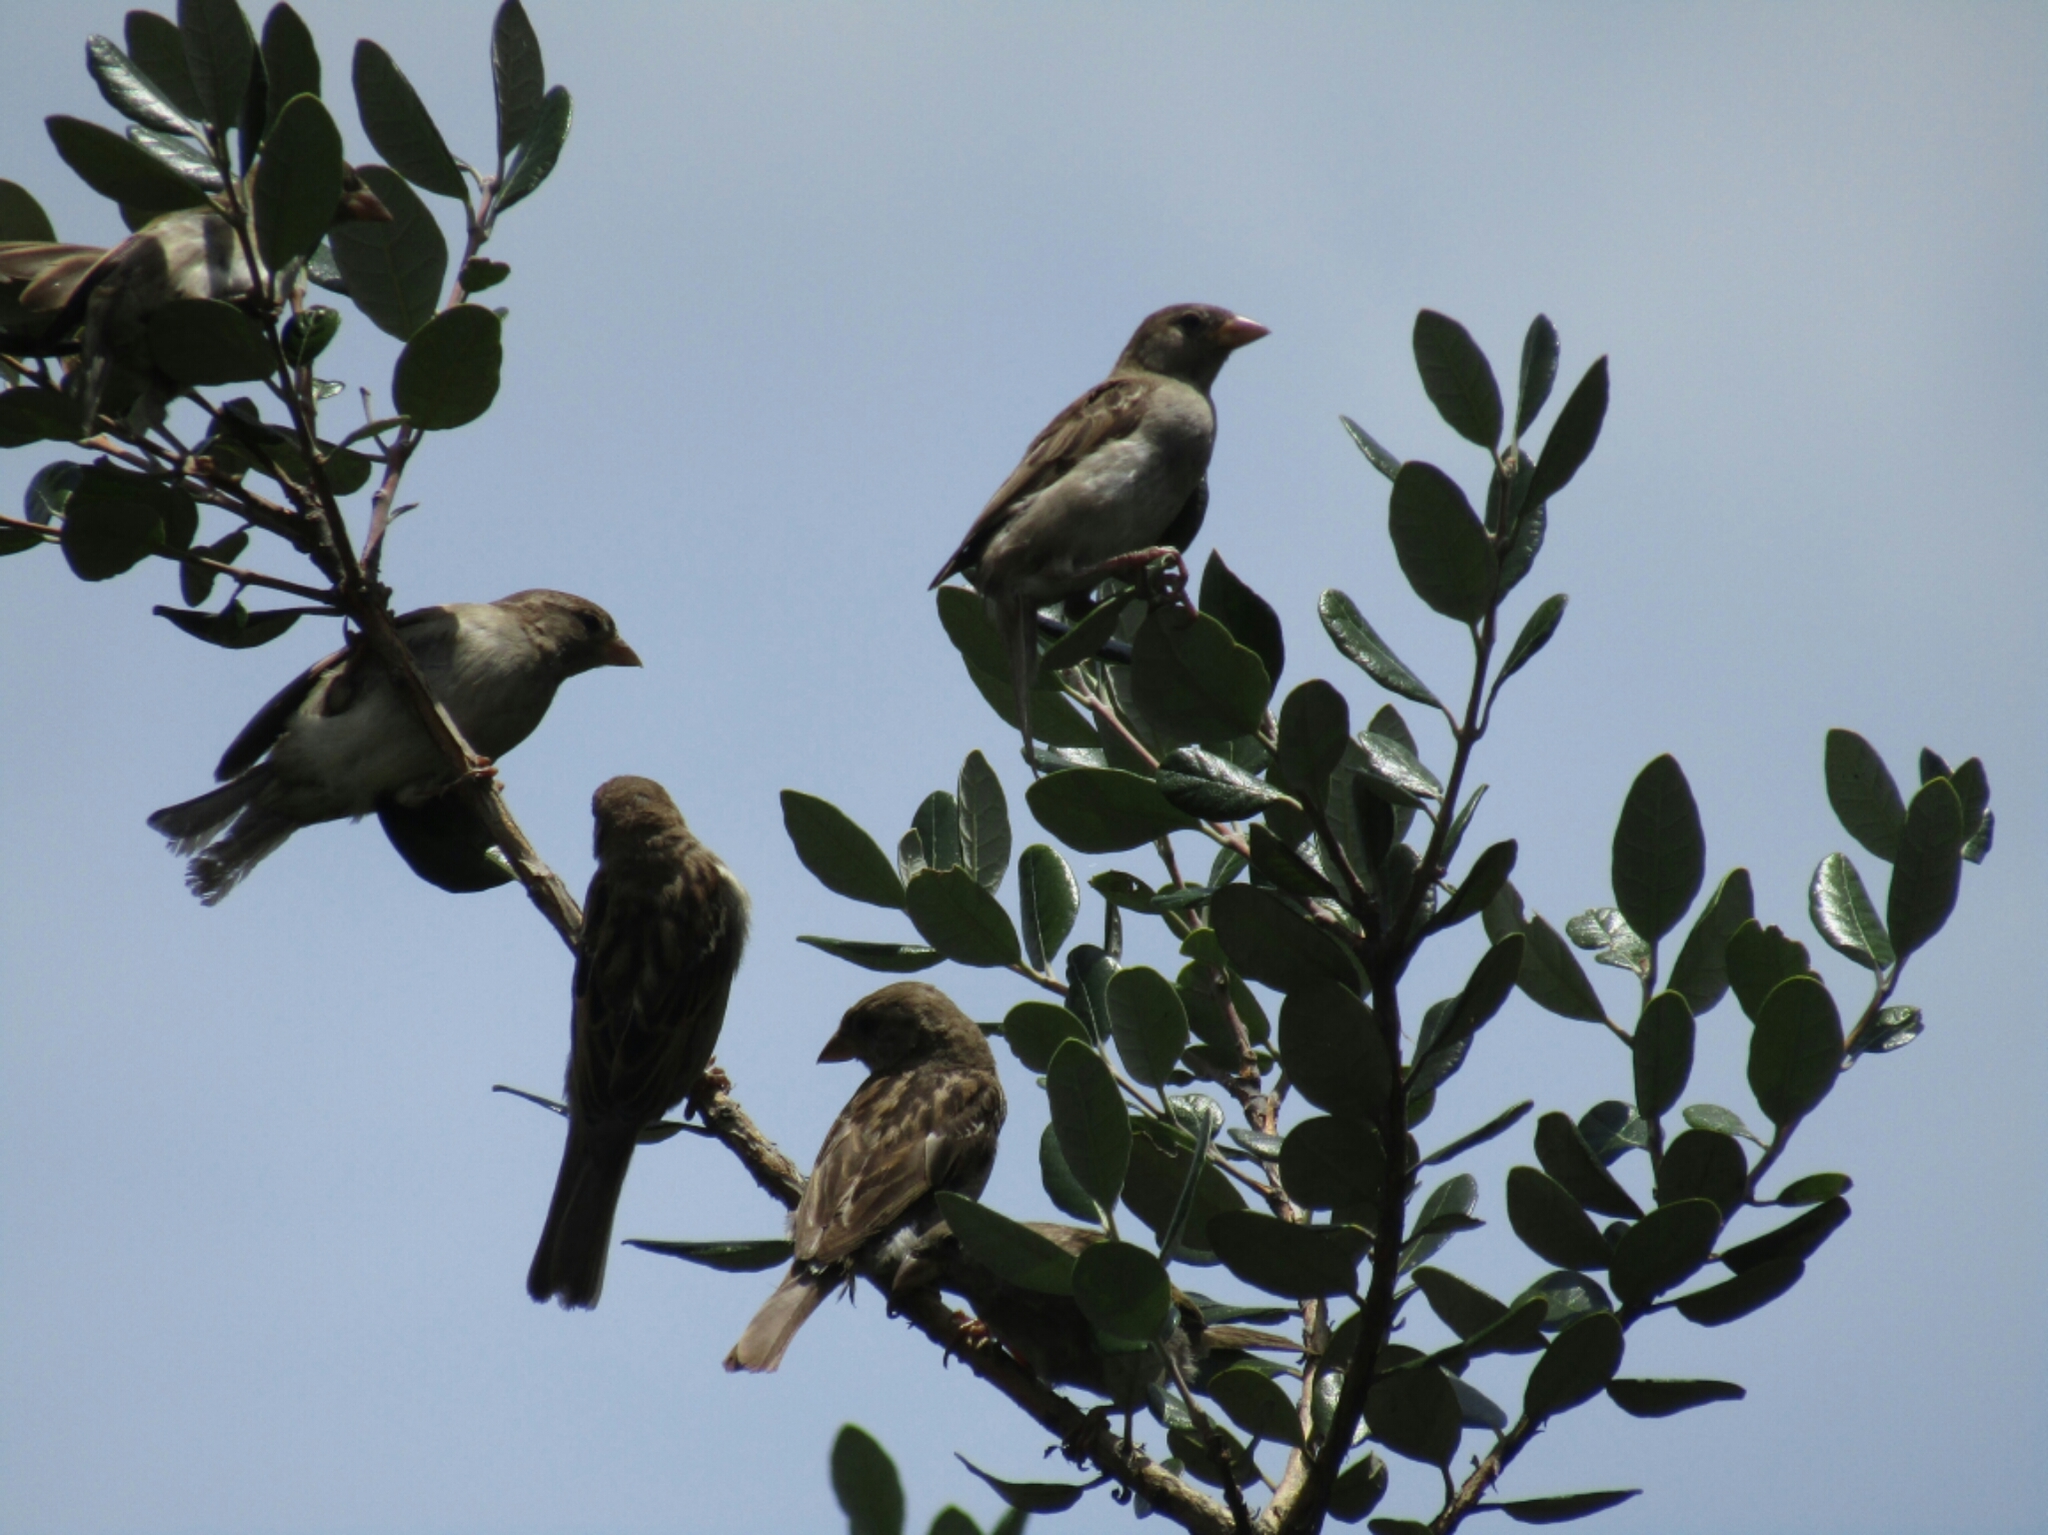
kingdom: Animalia
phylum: Chordata
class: Aves
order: Passeriformes
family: Passeridae
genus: Passer
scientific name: Passer domesticus
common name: House sparrow
